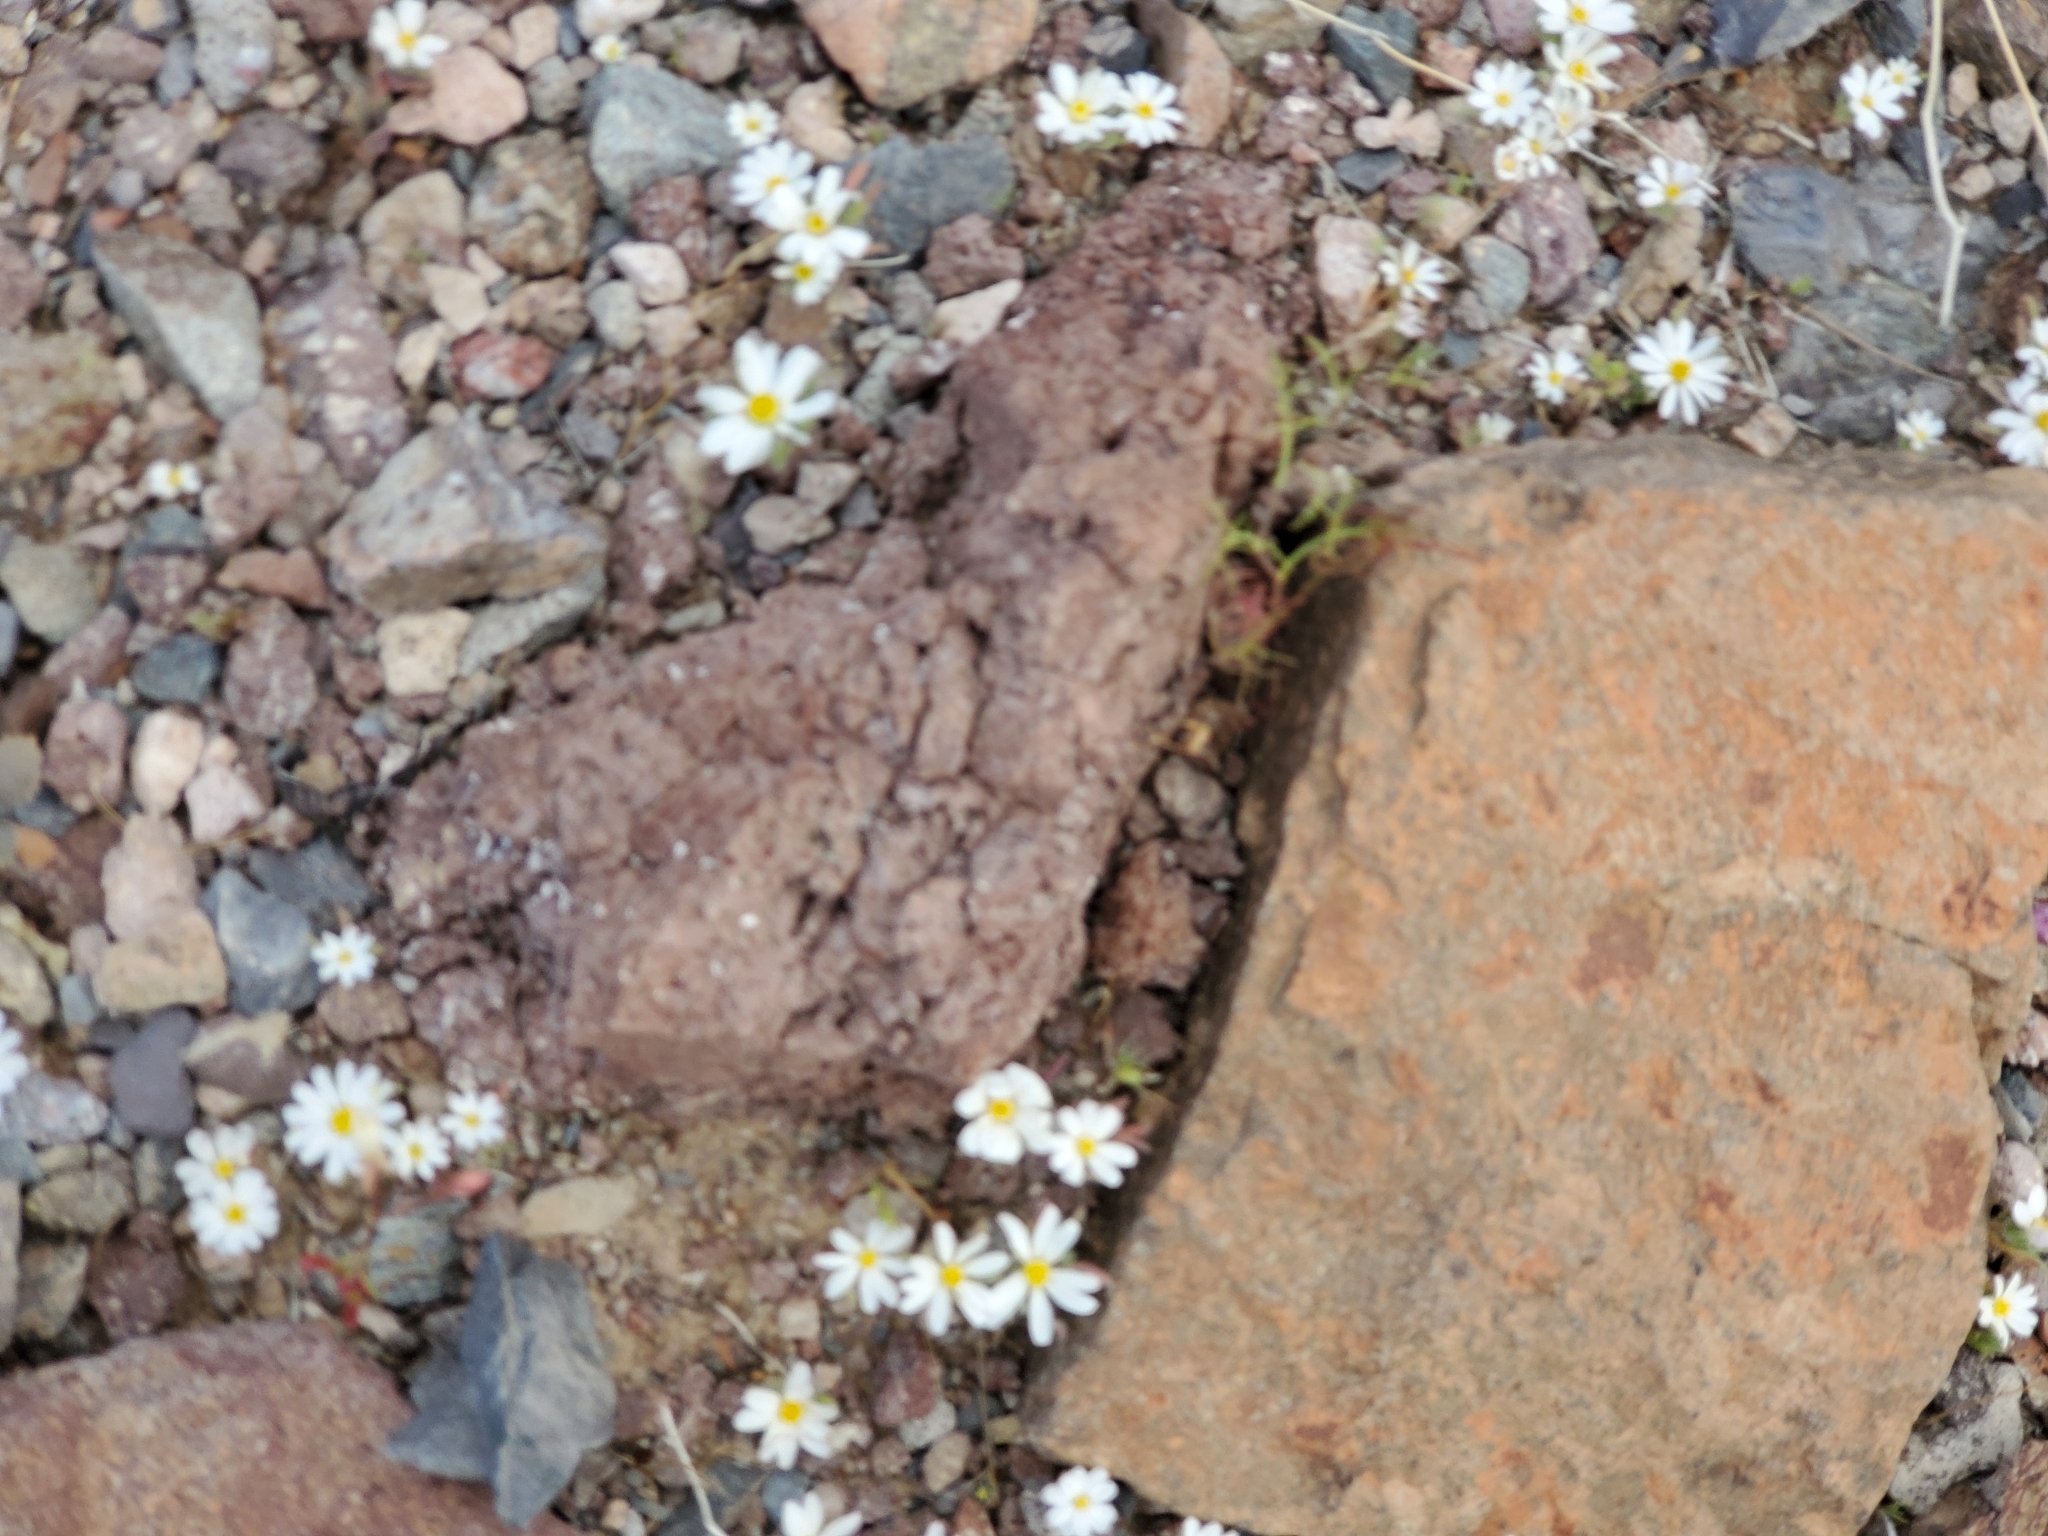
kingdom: Plantae
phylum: Tracheophyta
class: Magnoliopsida
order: Asterales
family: Asteraceae
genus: Monoptilon
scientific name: Monoptilon bellioides
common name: Bristly desertstar
